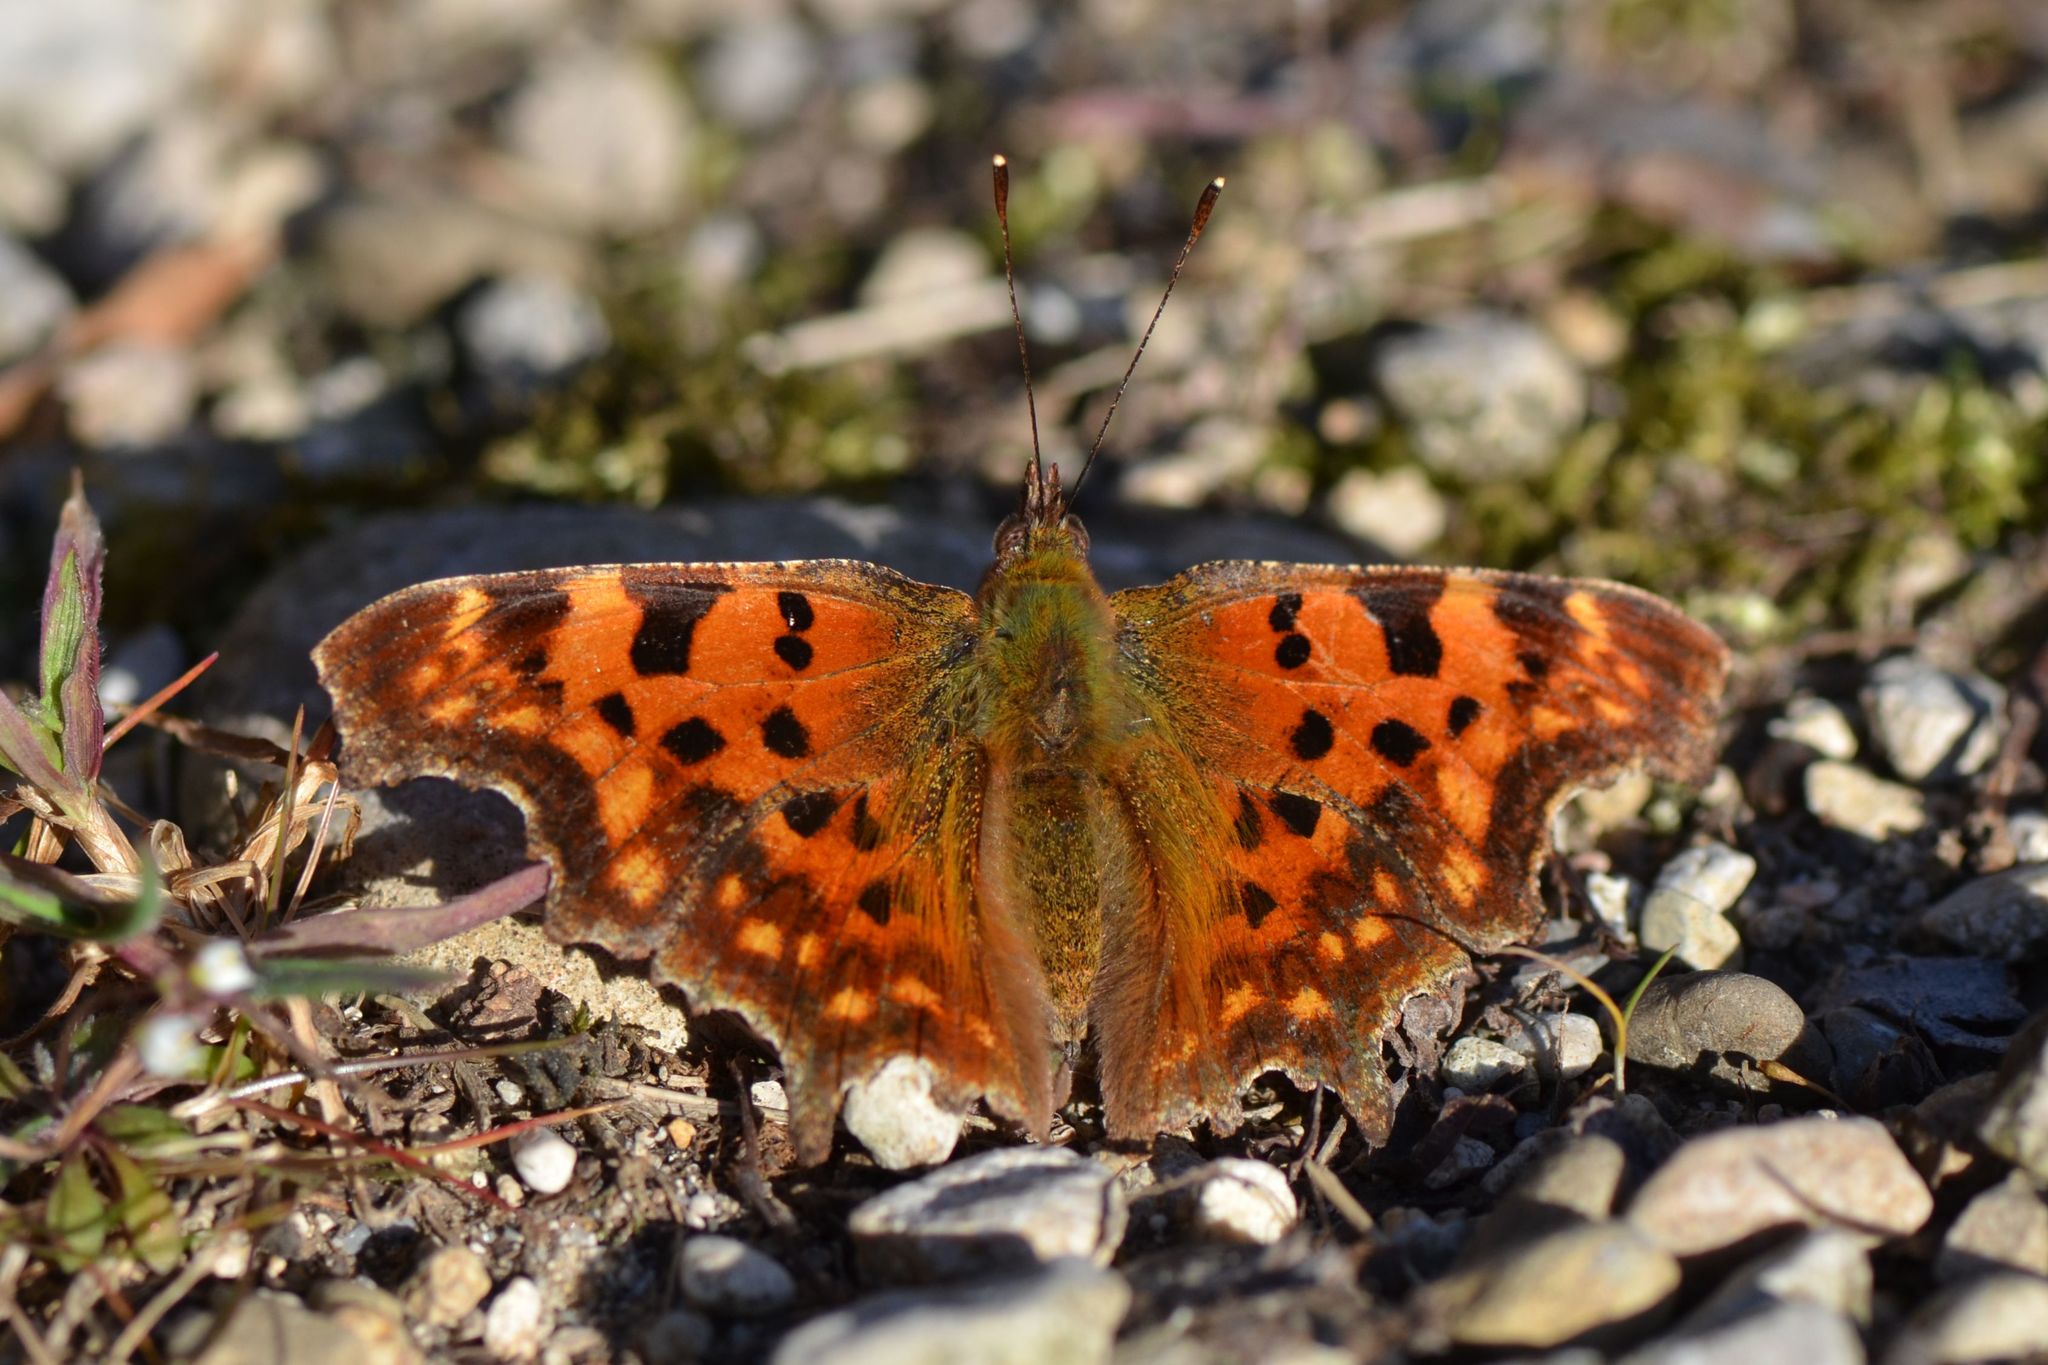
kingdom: Animalia
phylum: Arthropoda
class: Insecta
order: Lepidoptera
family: Nymphalidae
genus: Polygonia
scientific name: Polygonia c-album
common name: Comma
